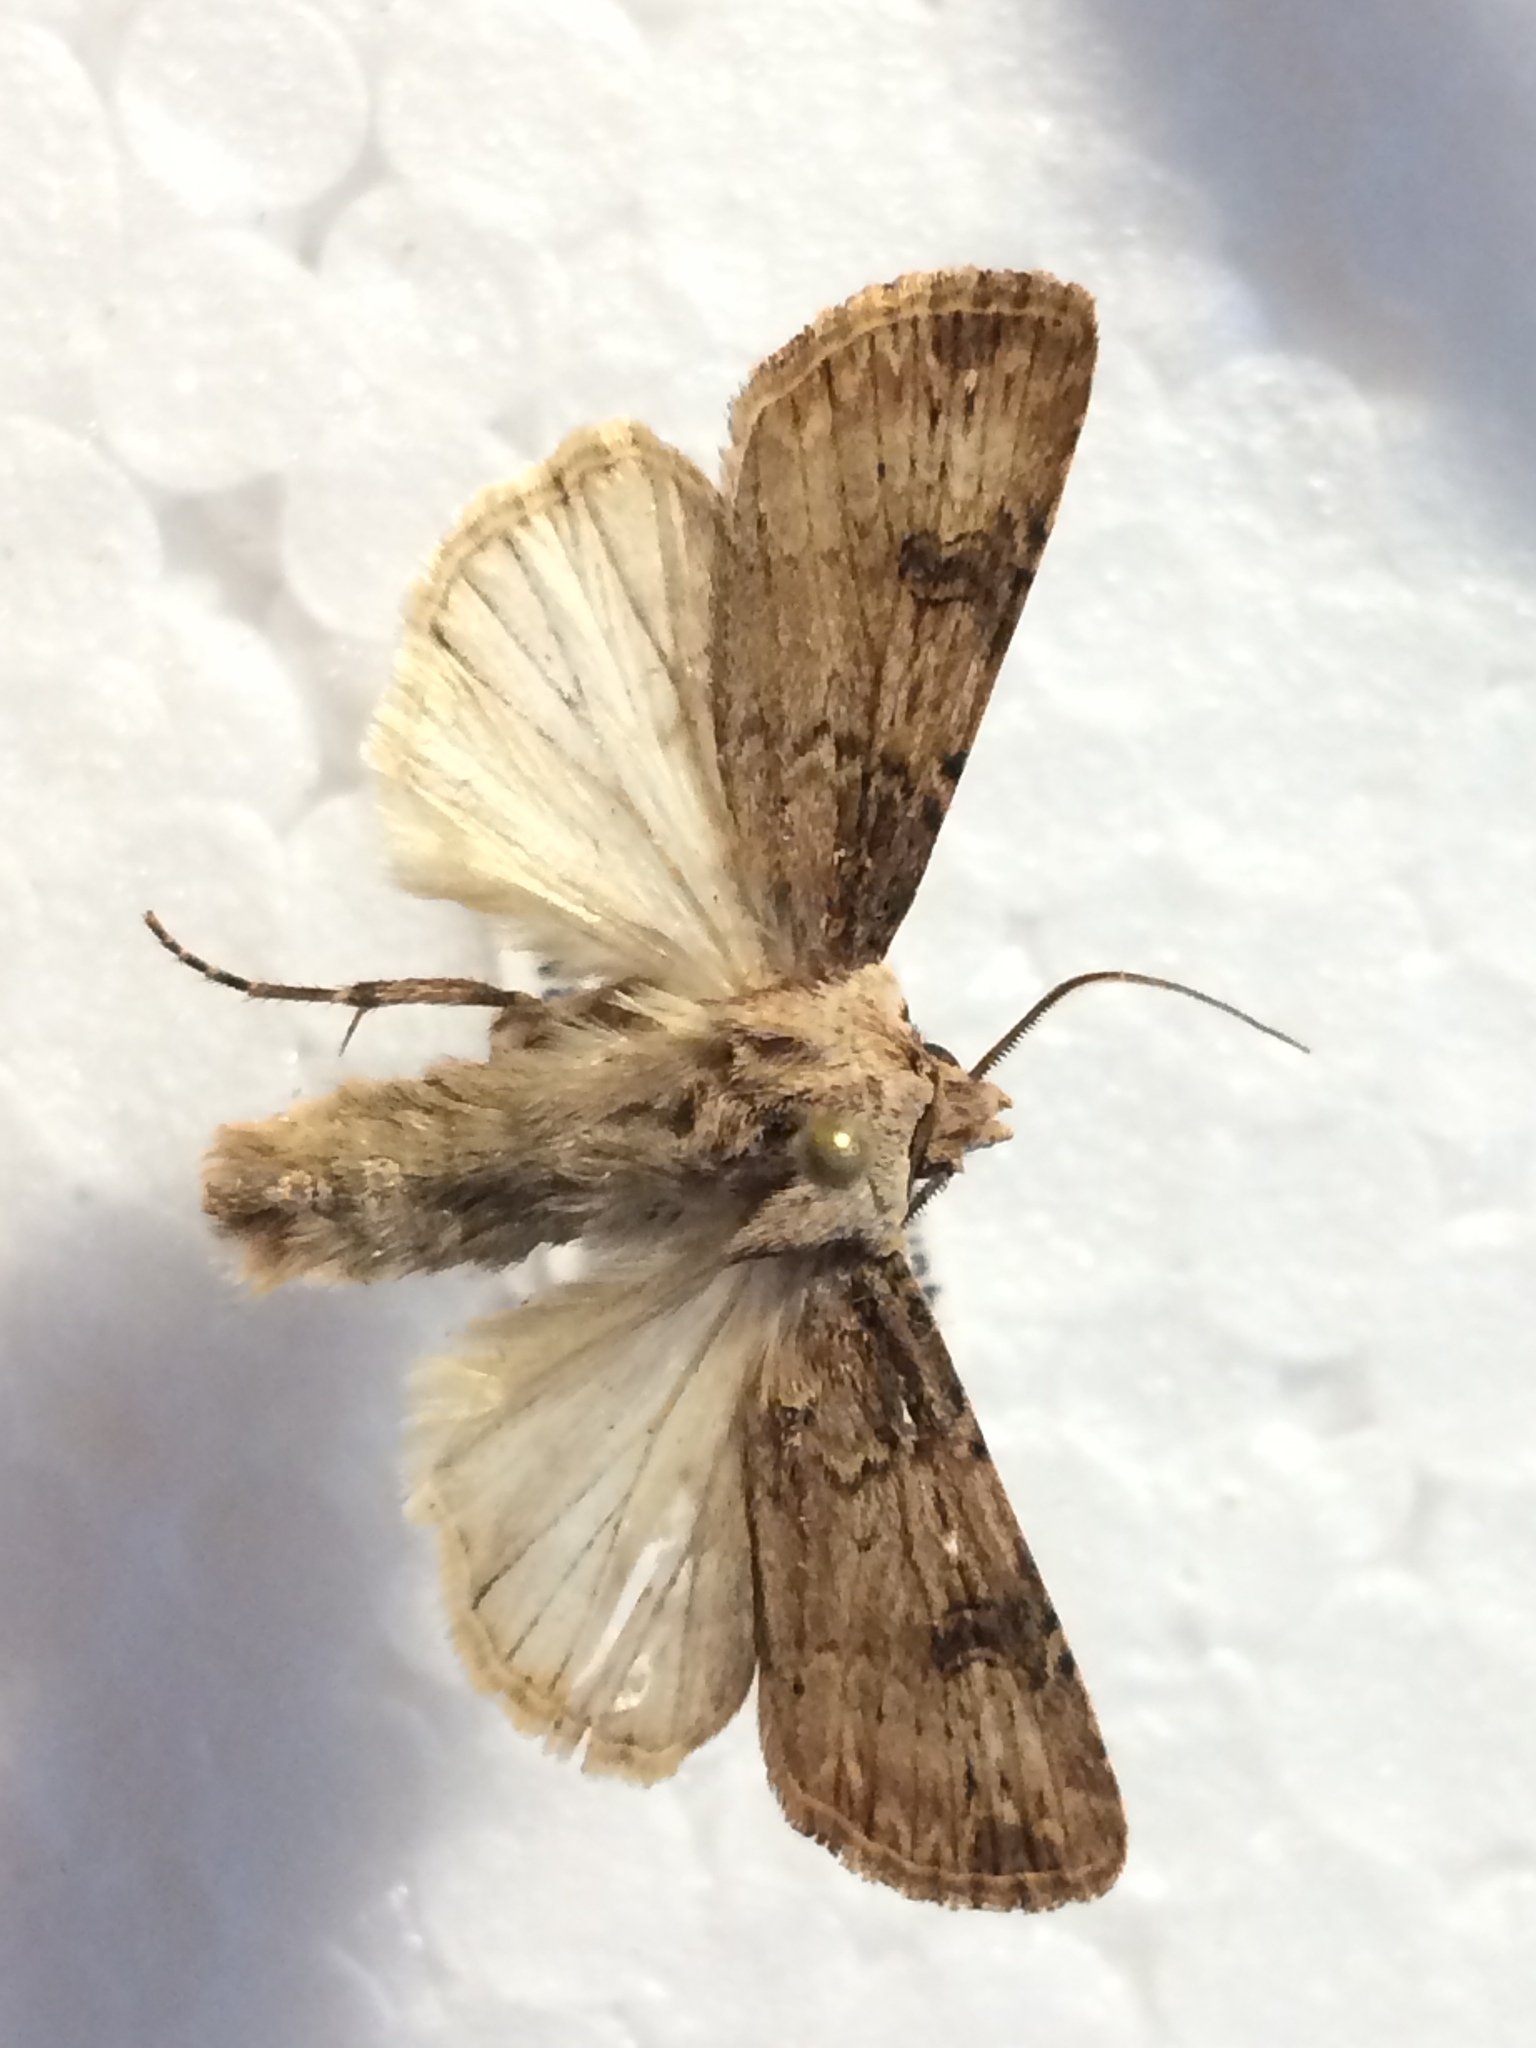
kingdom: Animalia
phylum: Arthropoda
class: Insecta
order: Lepidoptera
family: Noctuidae
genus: Agrotis
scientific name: Agrotis puta
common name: Shuttle-shaped dart
